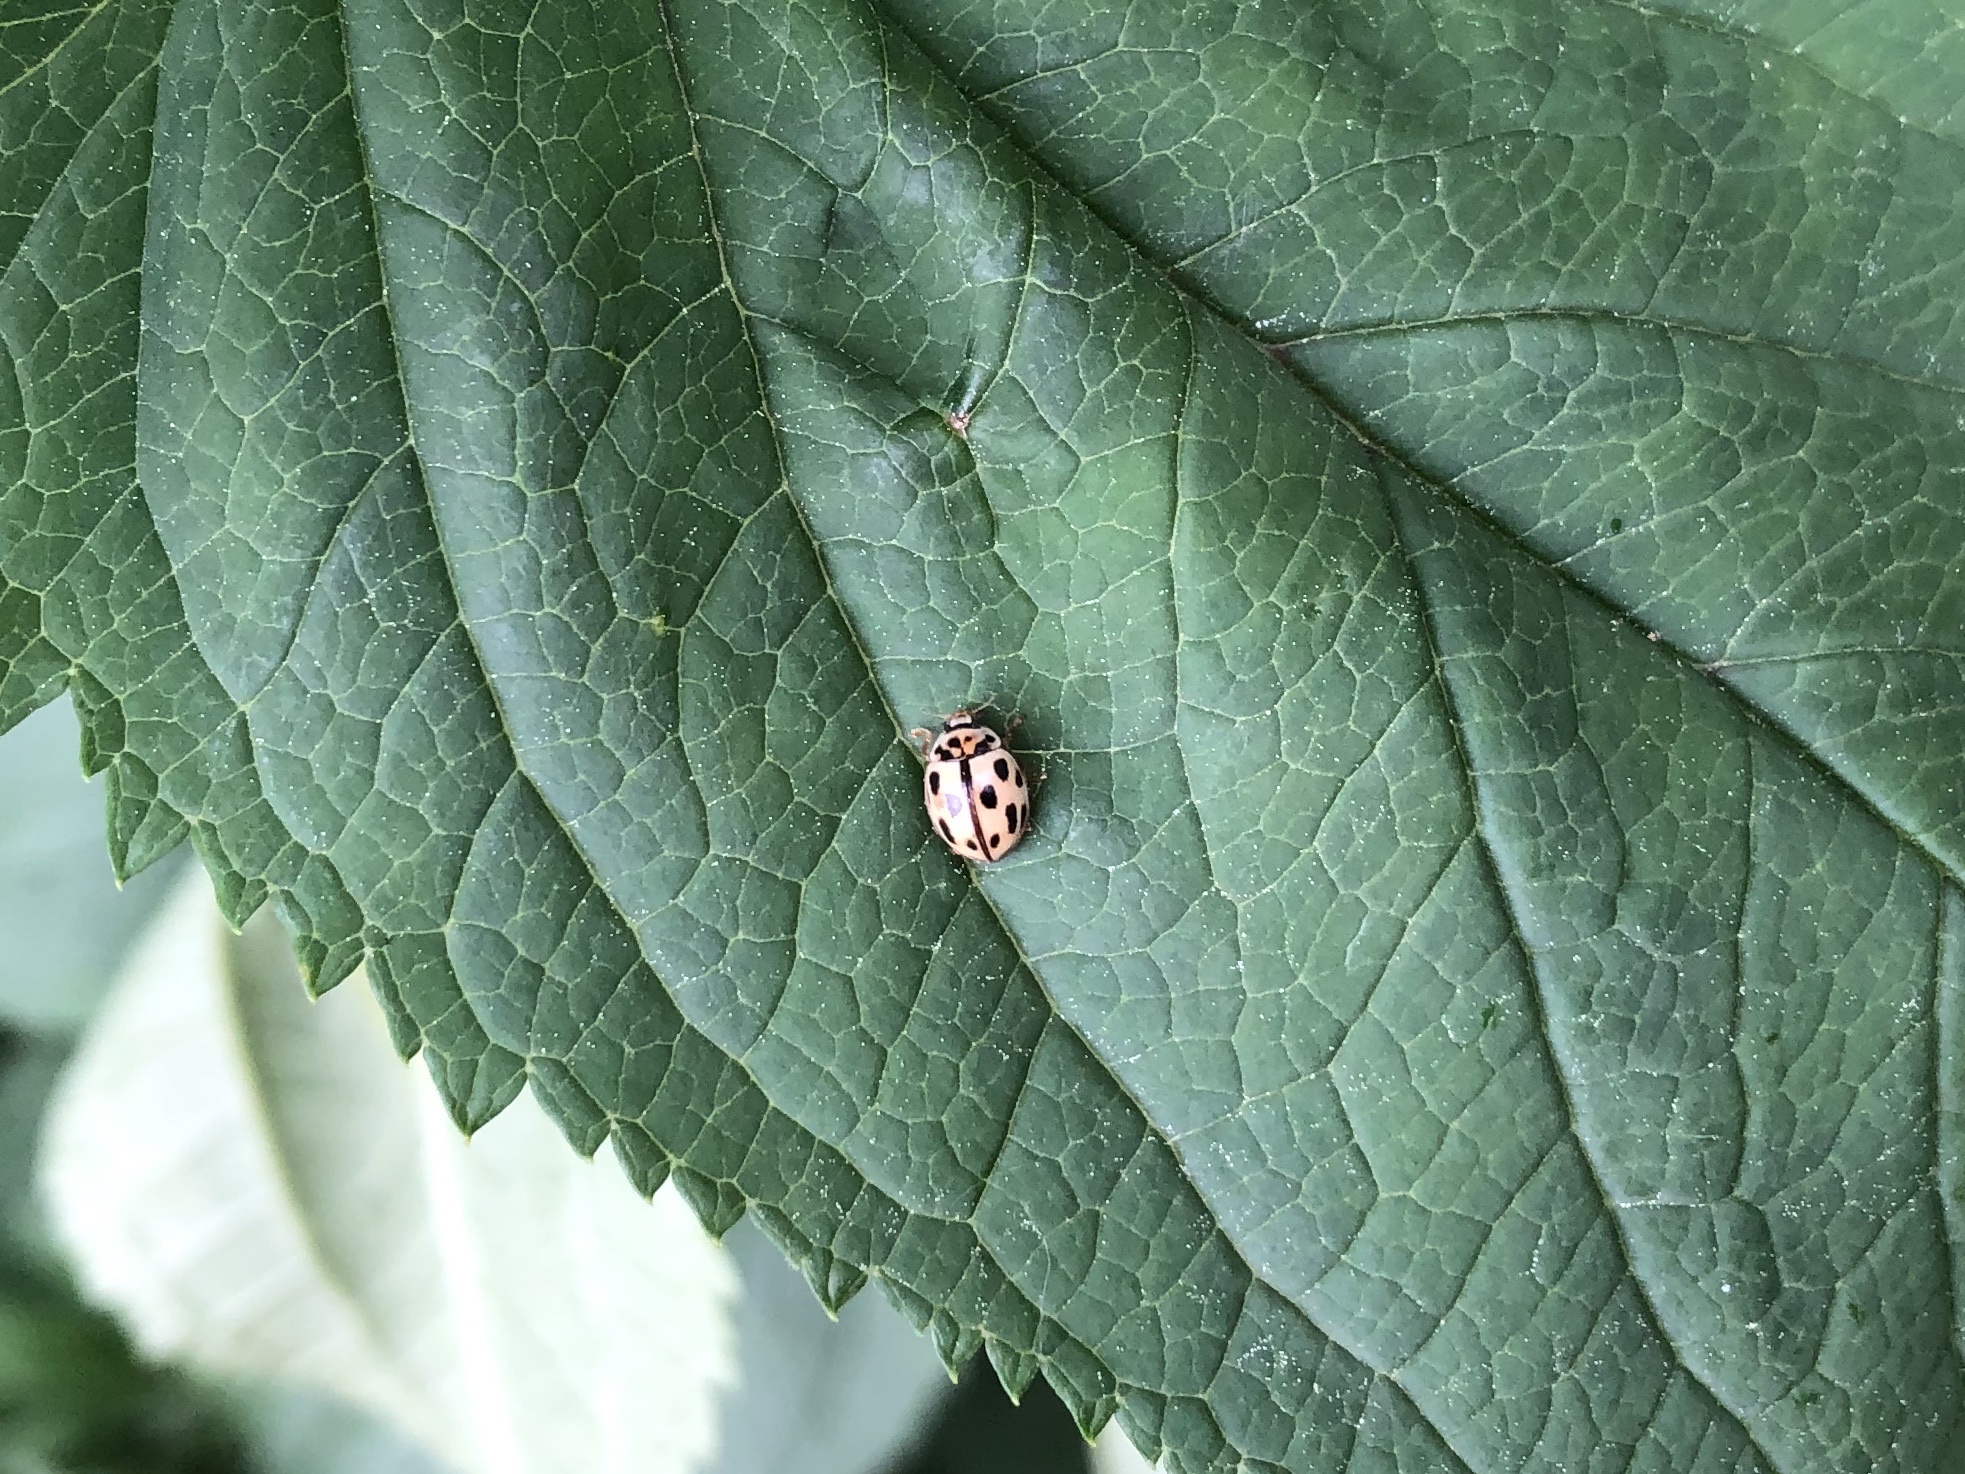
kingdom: Animalia
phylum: Arthropoda
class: Insecta
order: Coleoptera
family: Coccinellidae
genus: Propylaea
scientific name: Propylaea quatuordecimpunctata
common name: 14-spotted ladybird beetle
